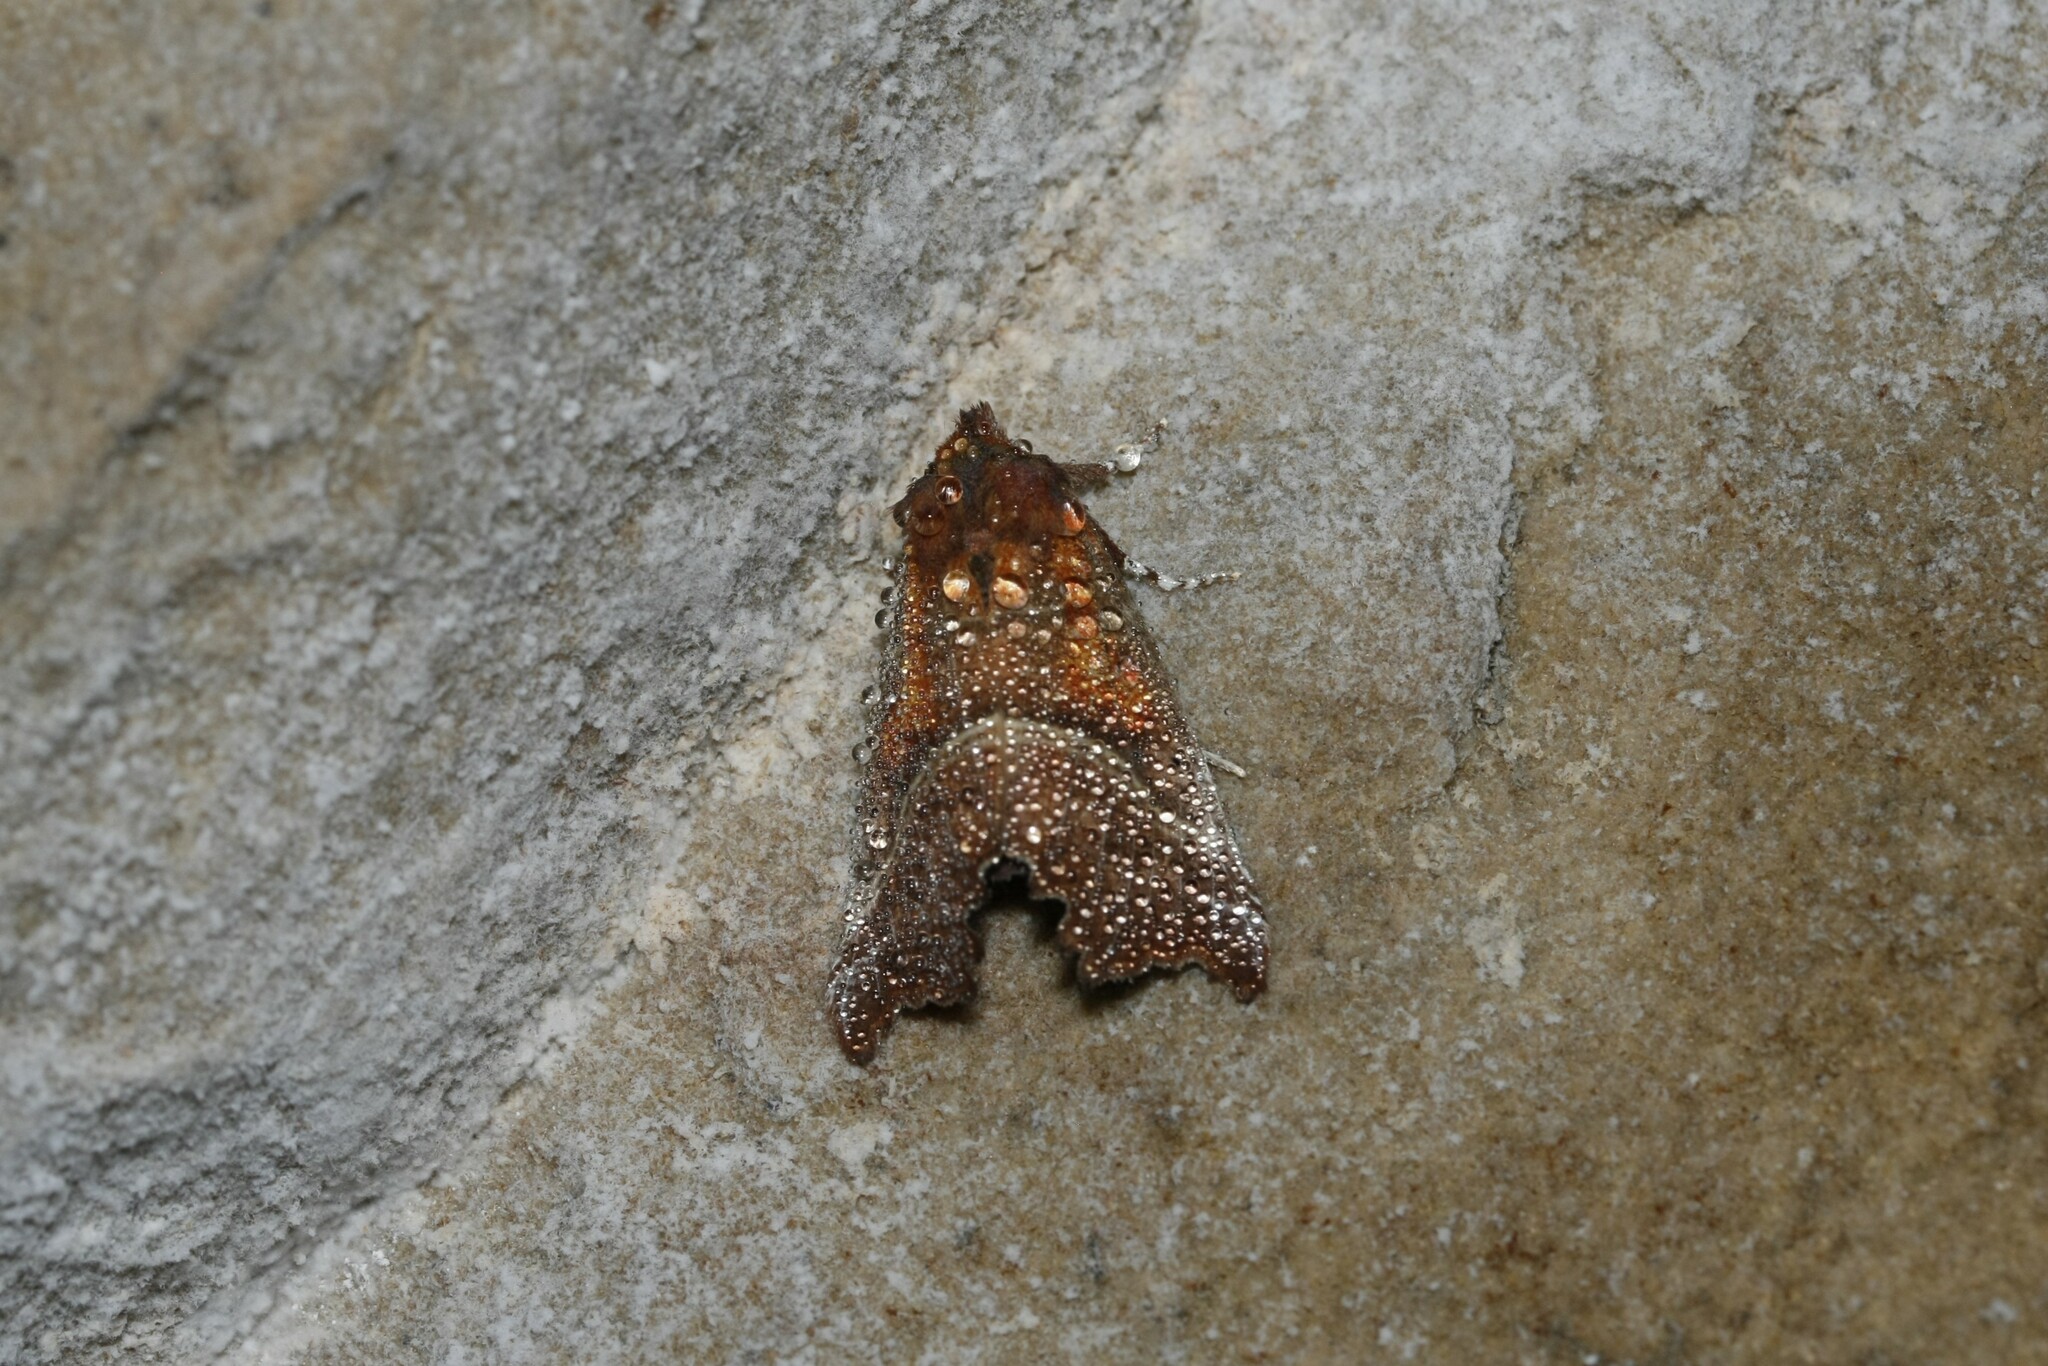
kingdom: Animalia
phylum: Arthropoda
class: Insecta
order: Lepidoptera
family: Erebidae
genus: Scoliopteryx
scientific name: Scoliopteryx libatrix
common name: Herald
